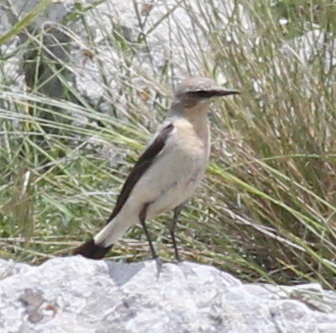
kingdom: Animalia
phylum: Chordata
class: Aves
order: Passeriformes
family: Muscicapidae
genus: Oenanthe
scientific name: Oenanthe oenanthe
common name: Northern wheatear
